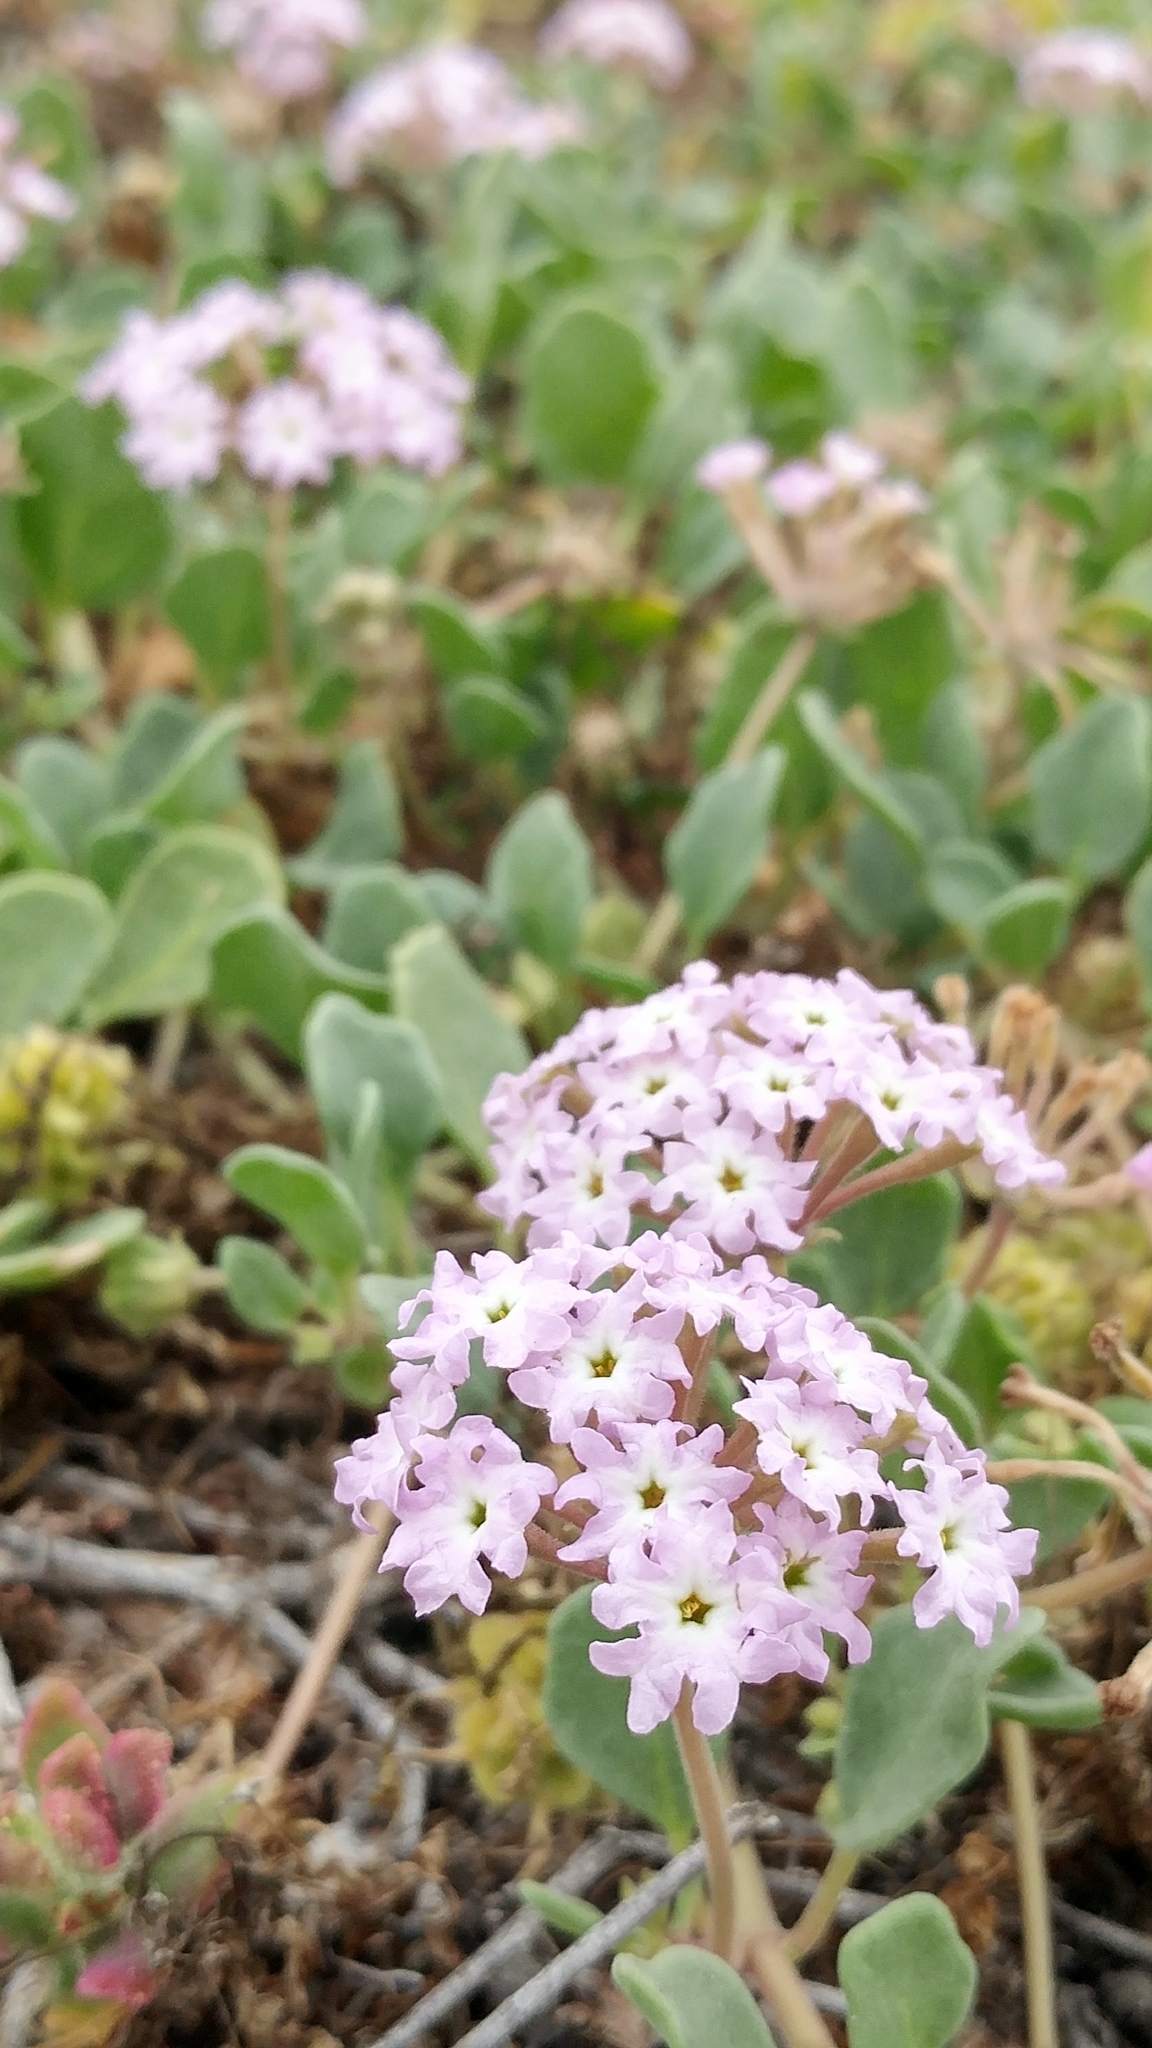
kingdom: Plantae
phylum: Tracheophyta
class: Magnoliopsida
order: Caryophyllales
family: Nyctaginaceae
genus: Abronia
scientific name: Abronia umbellata
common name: Sand-verbena
